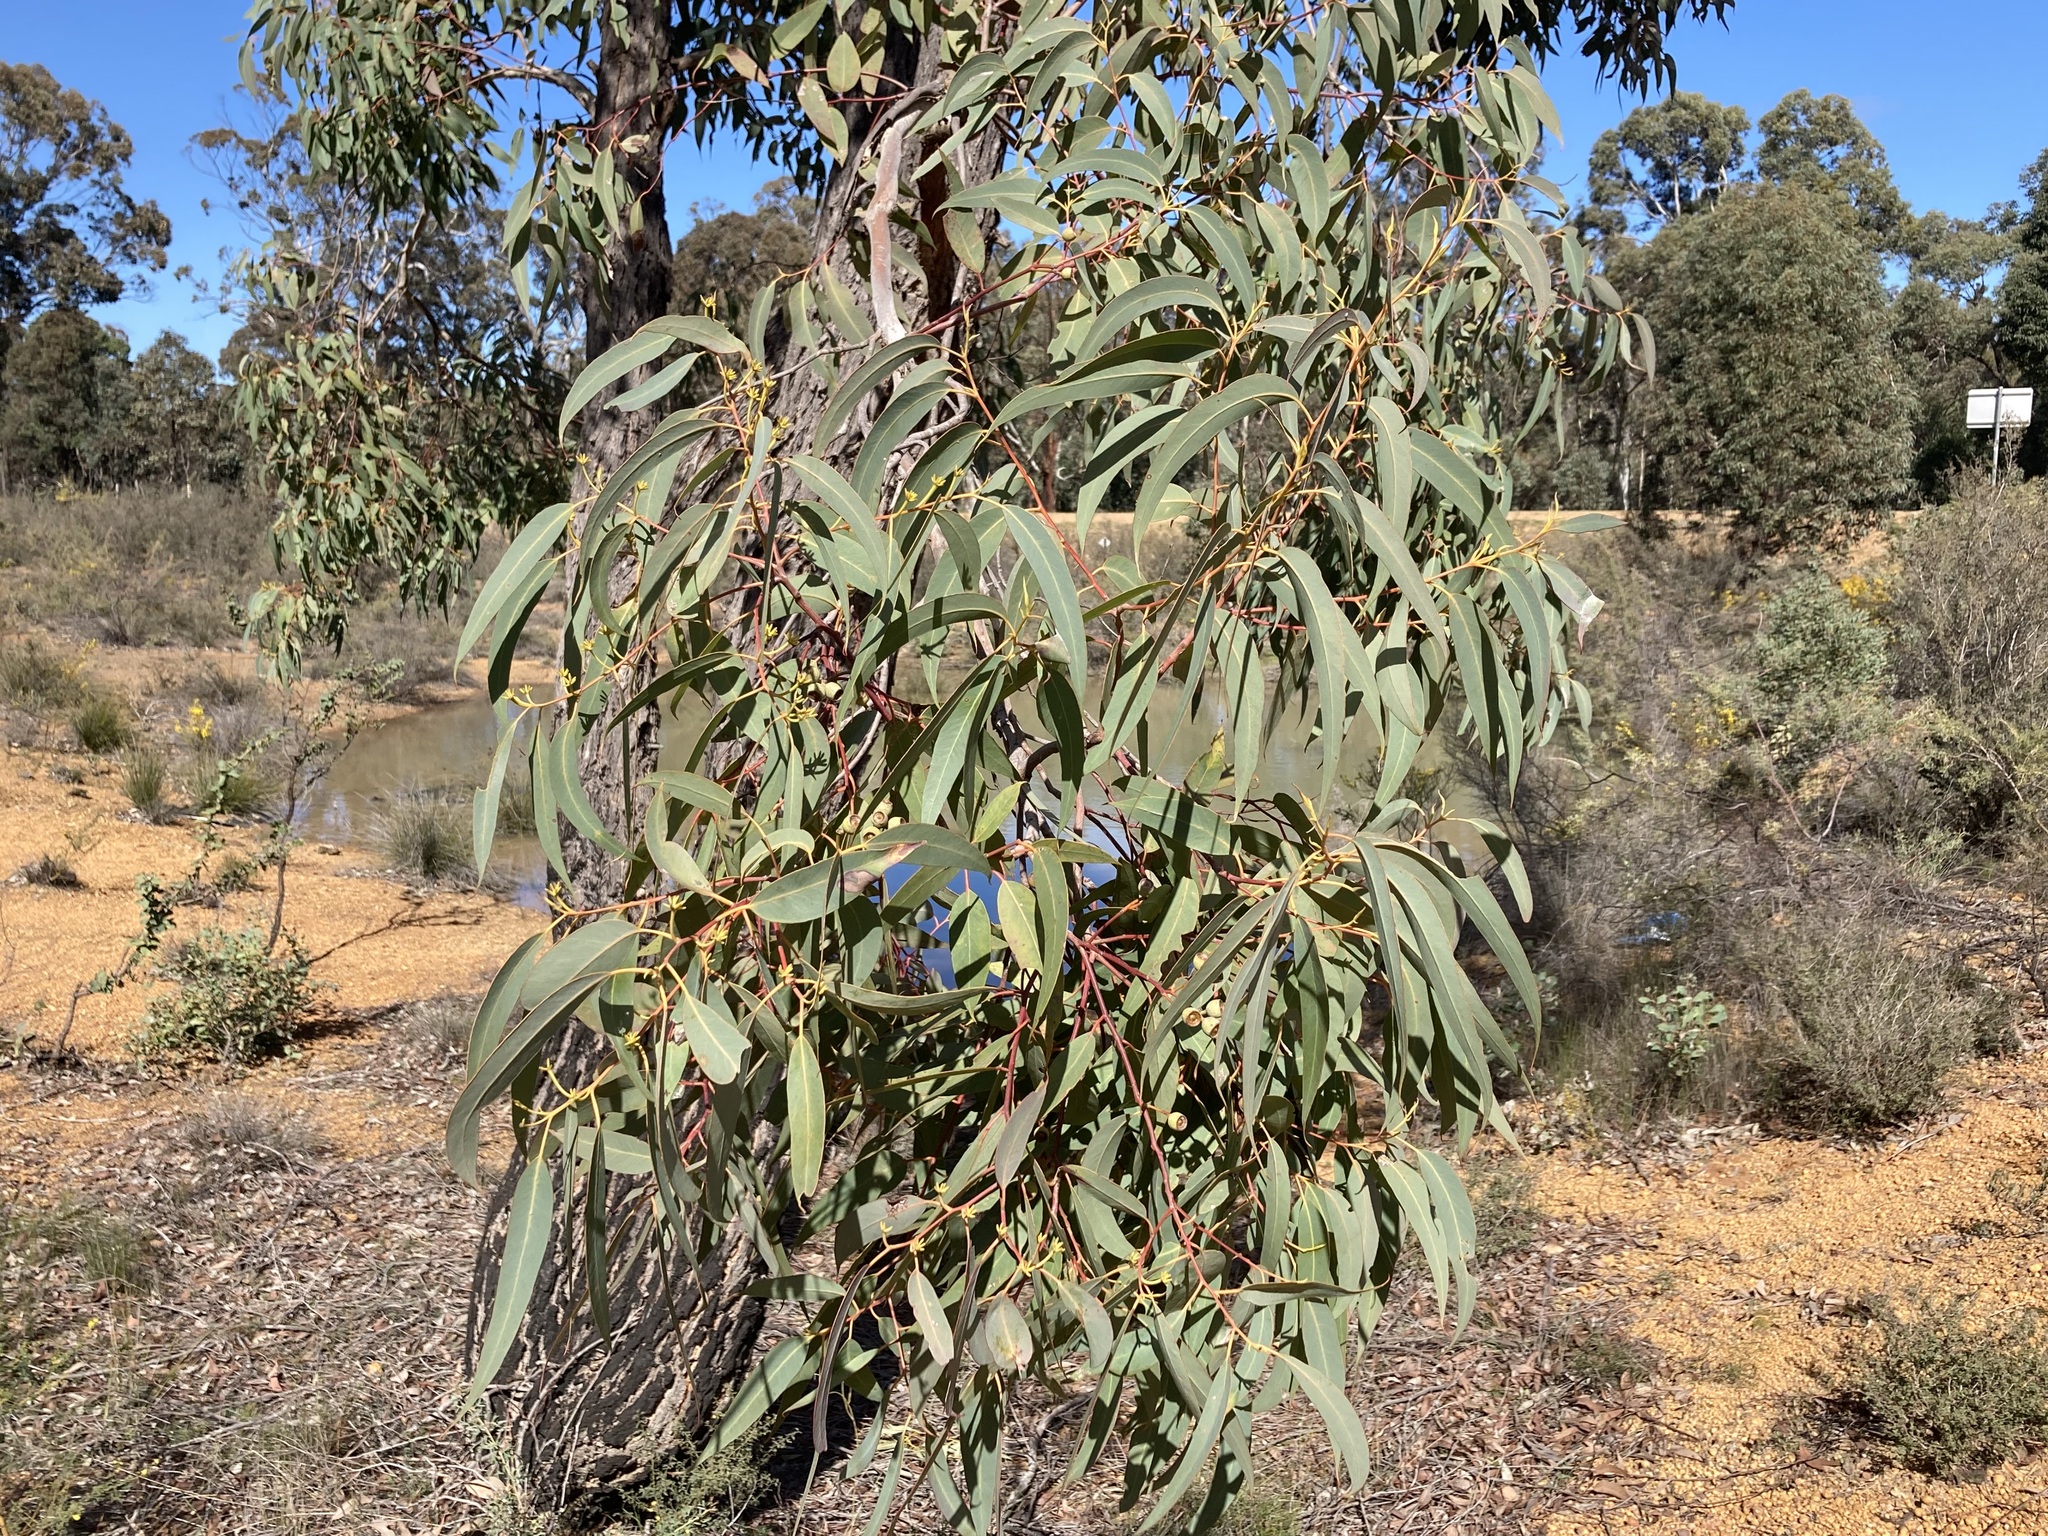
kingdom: Plantae
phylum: Tracheophyta
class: Magnoliopsida
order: Myrtales
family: Myrtaceae
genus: Eucalyptus
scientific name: Eucalyptus patens
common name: Swan river blackbutt
